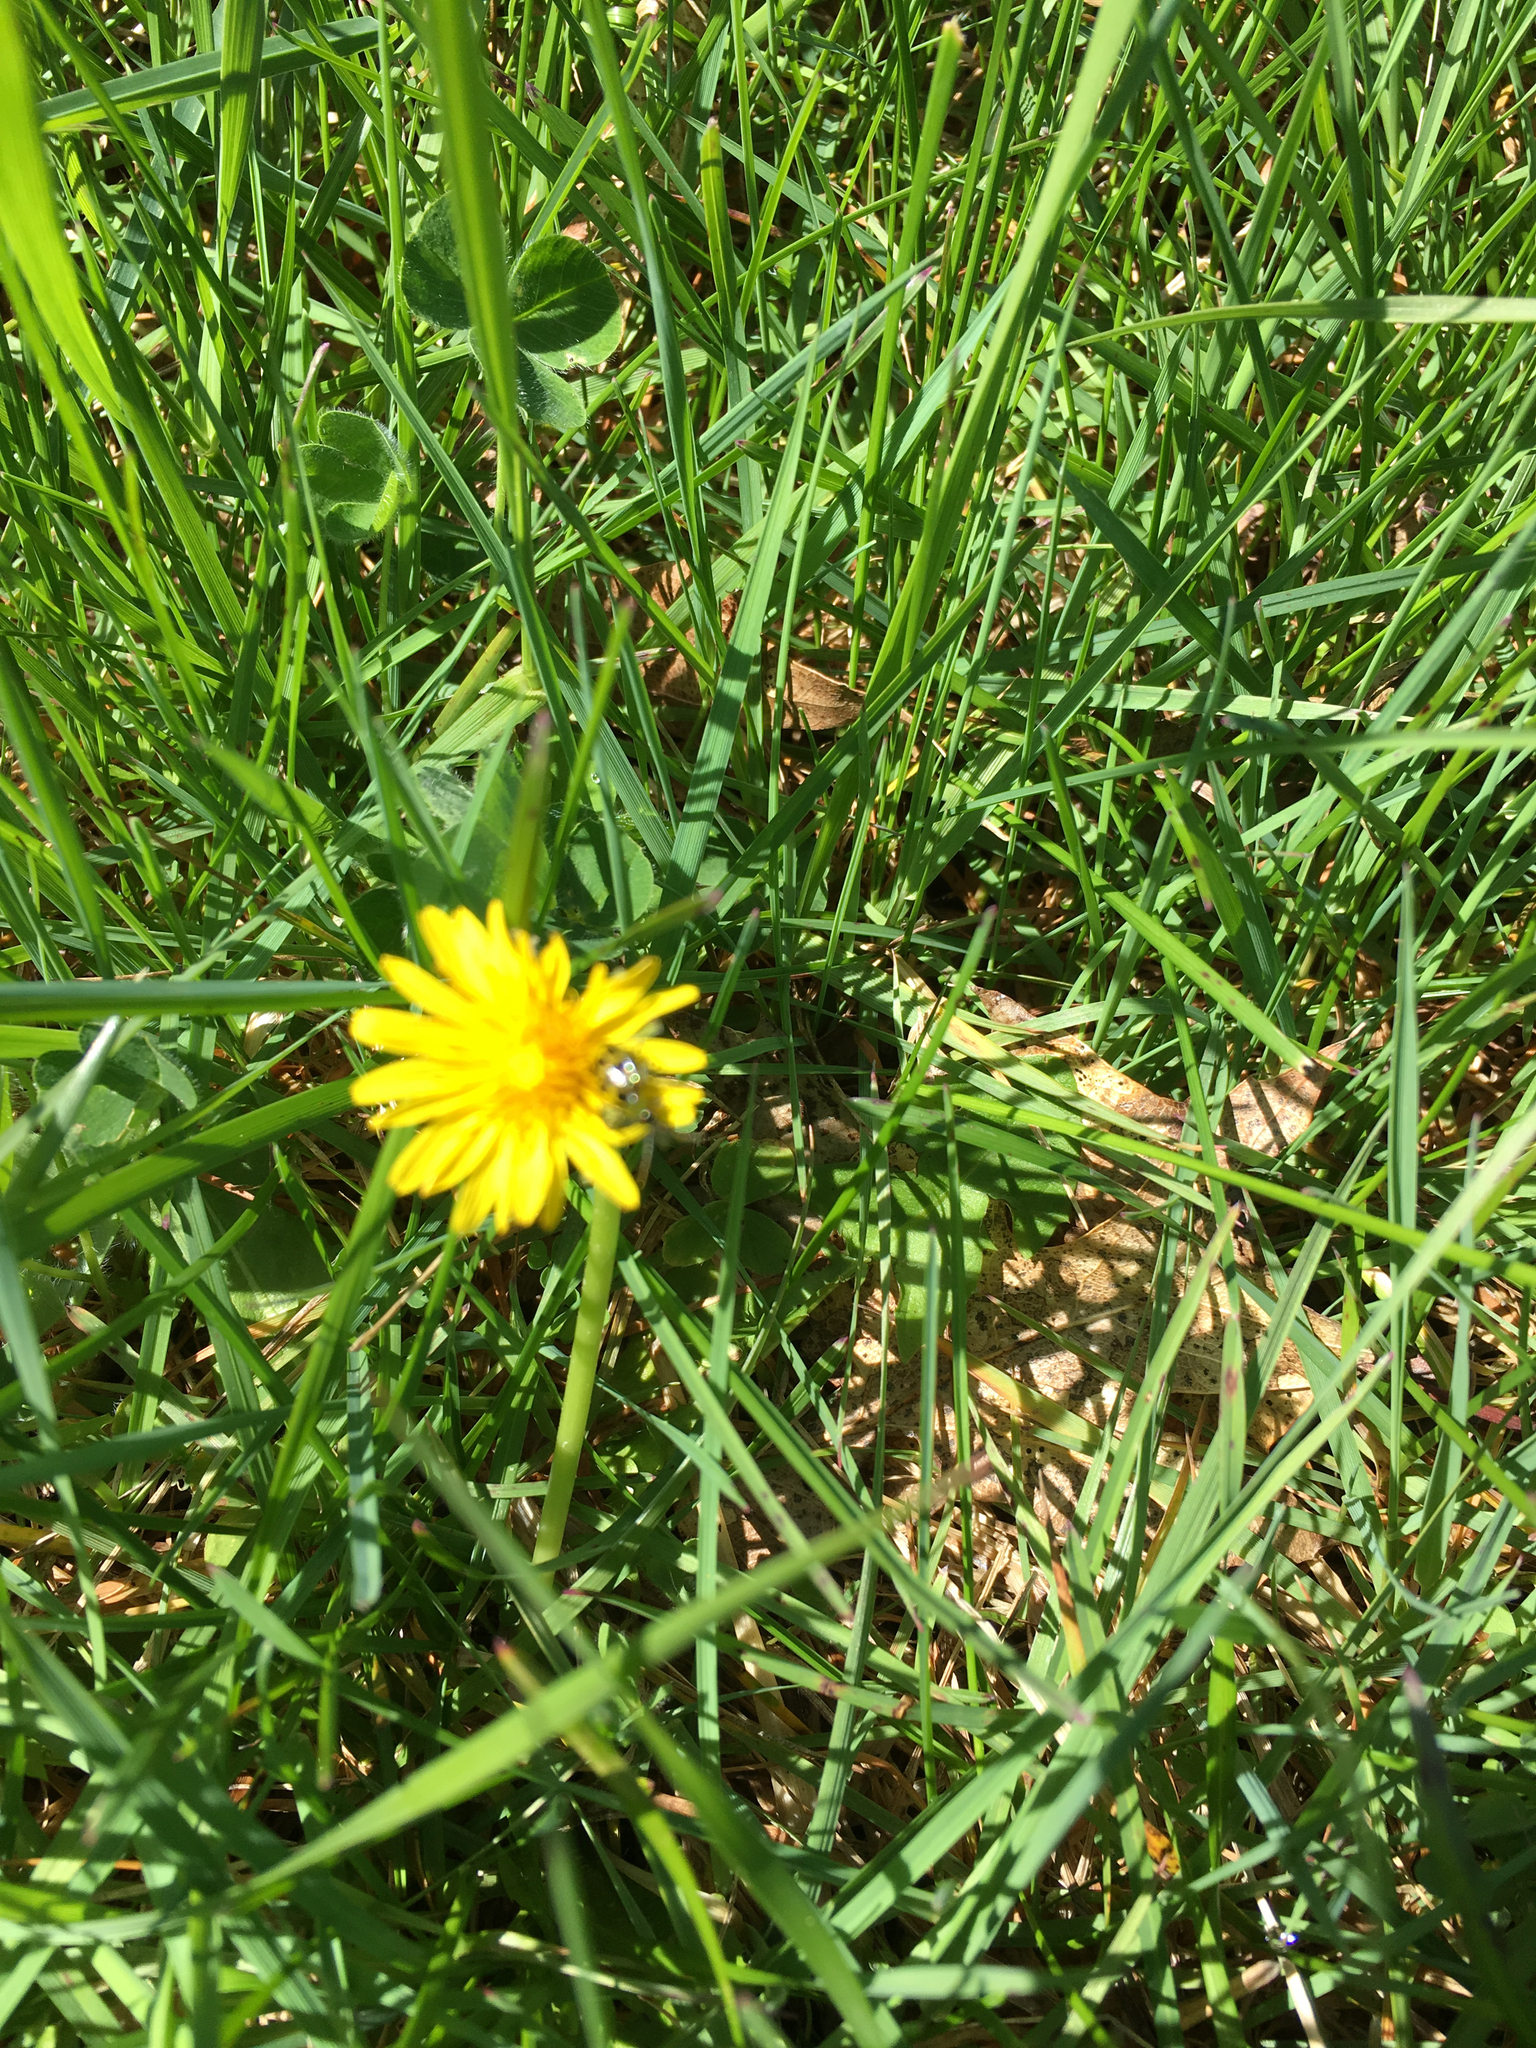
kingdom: Animalia
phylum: Arthropoda
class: Insecta
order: Coleoptera
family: Chrysomelidae
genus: Diabrotica
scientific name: Diabrotica undecimpunctata
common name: Spotted cucumber beetle
